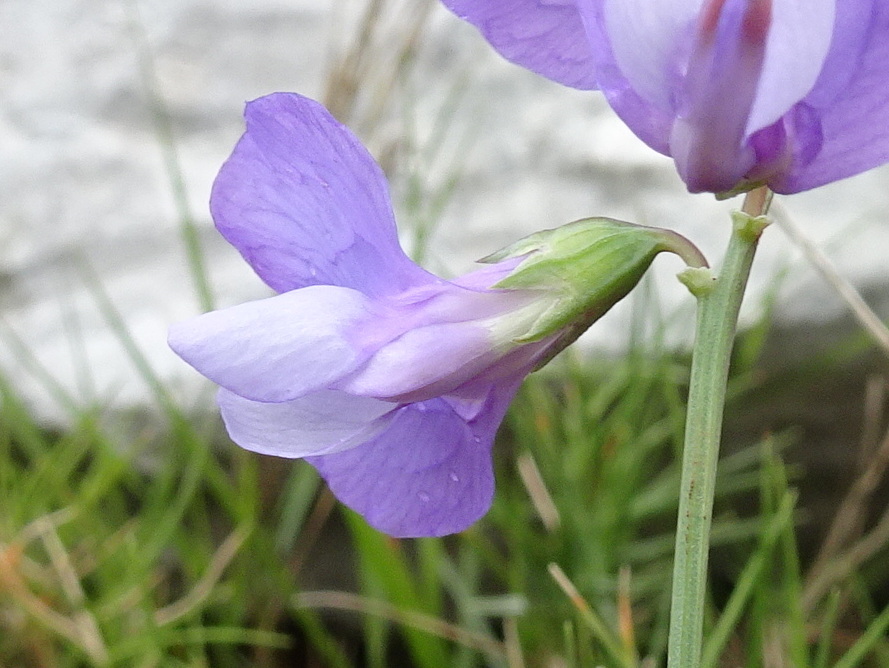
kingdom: Plantae
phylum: Tracheophyta
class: Magnoliopsida
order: Fabales
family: Fabaceae
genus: Lathyrus
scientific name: Lathyrus filiformis
